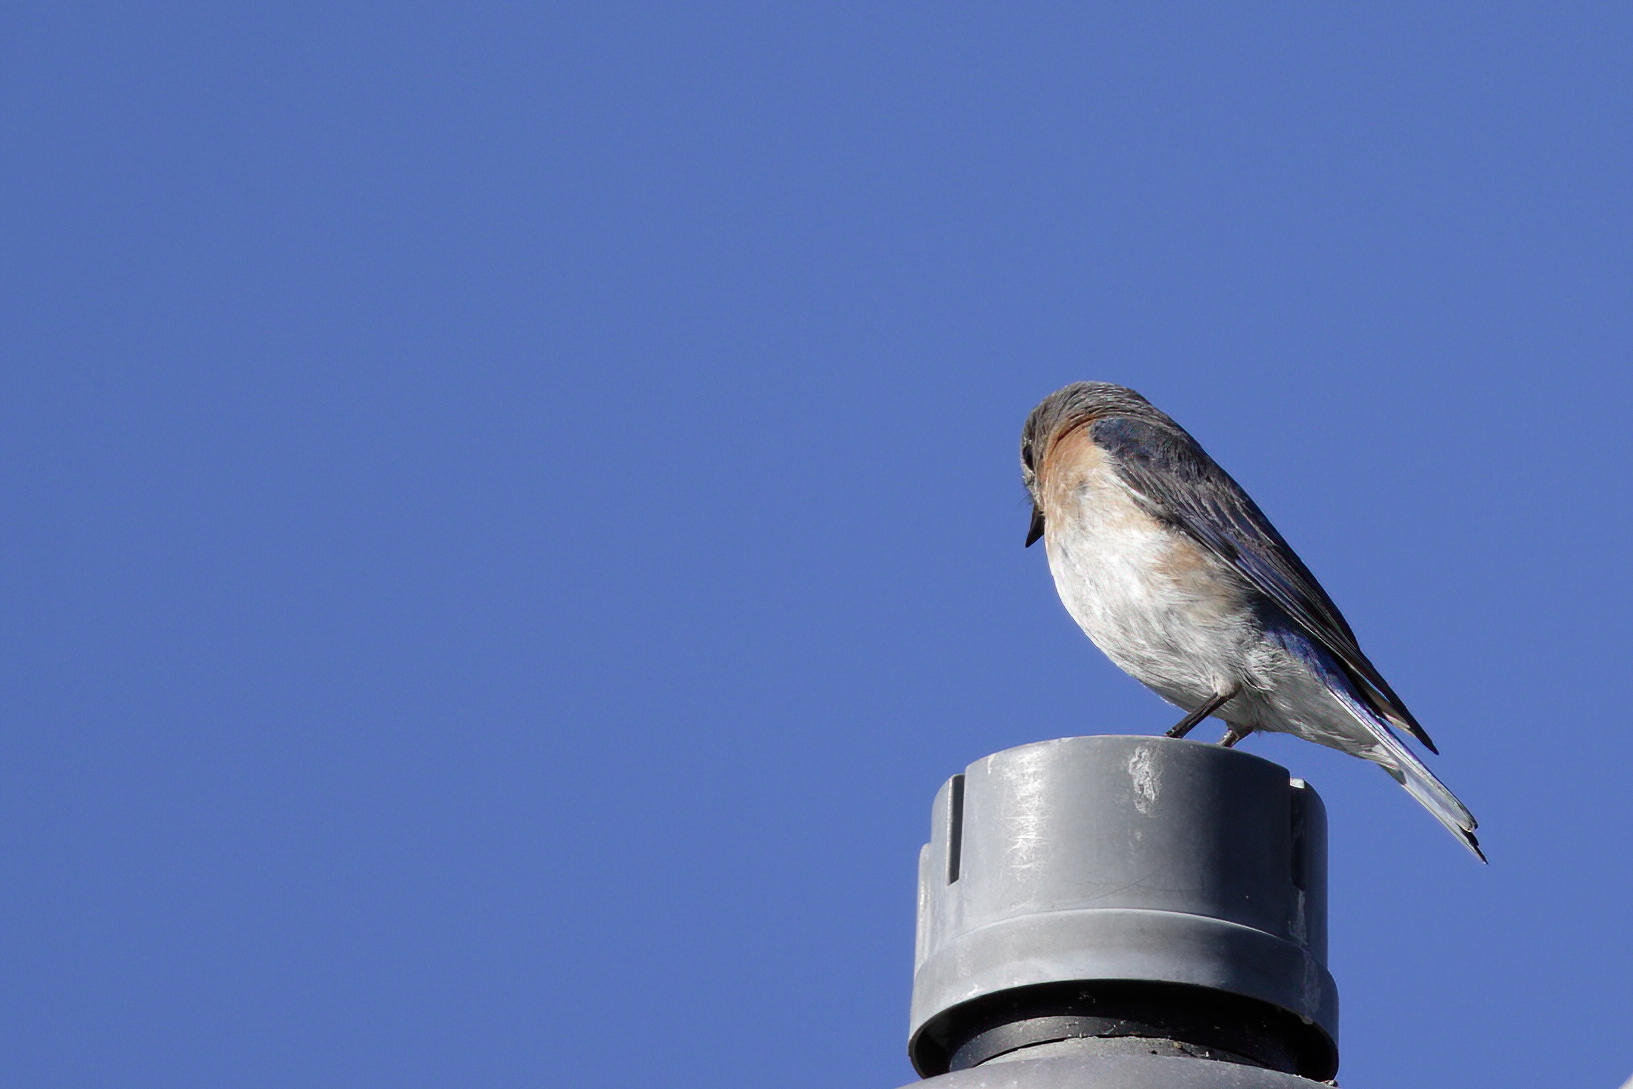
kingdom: Animalia
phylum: Chordata
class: Aves
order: Passeriformes
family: Turdidae
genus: Sialia
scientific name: Sialia sialis
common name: Eastern bluebird
